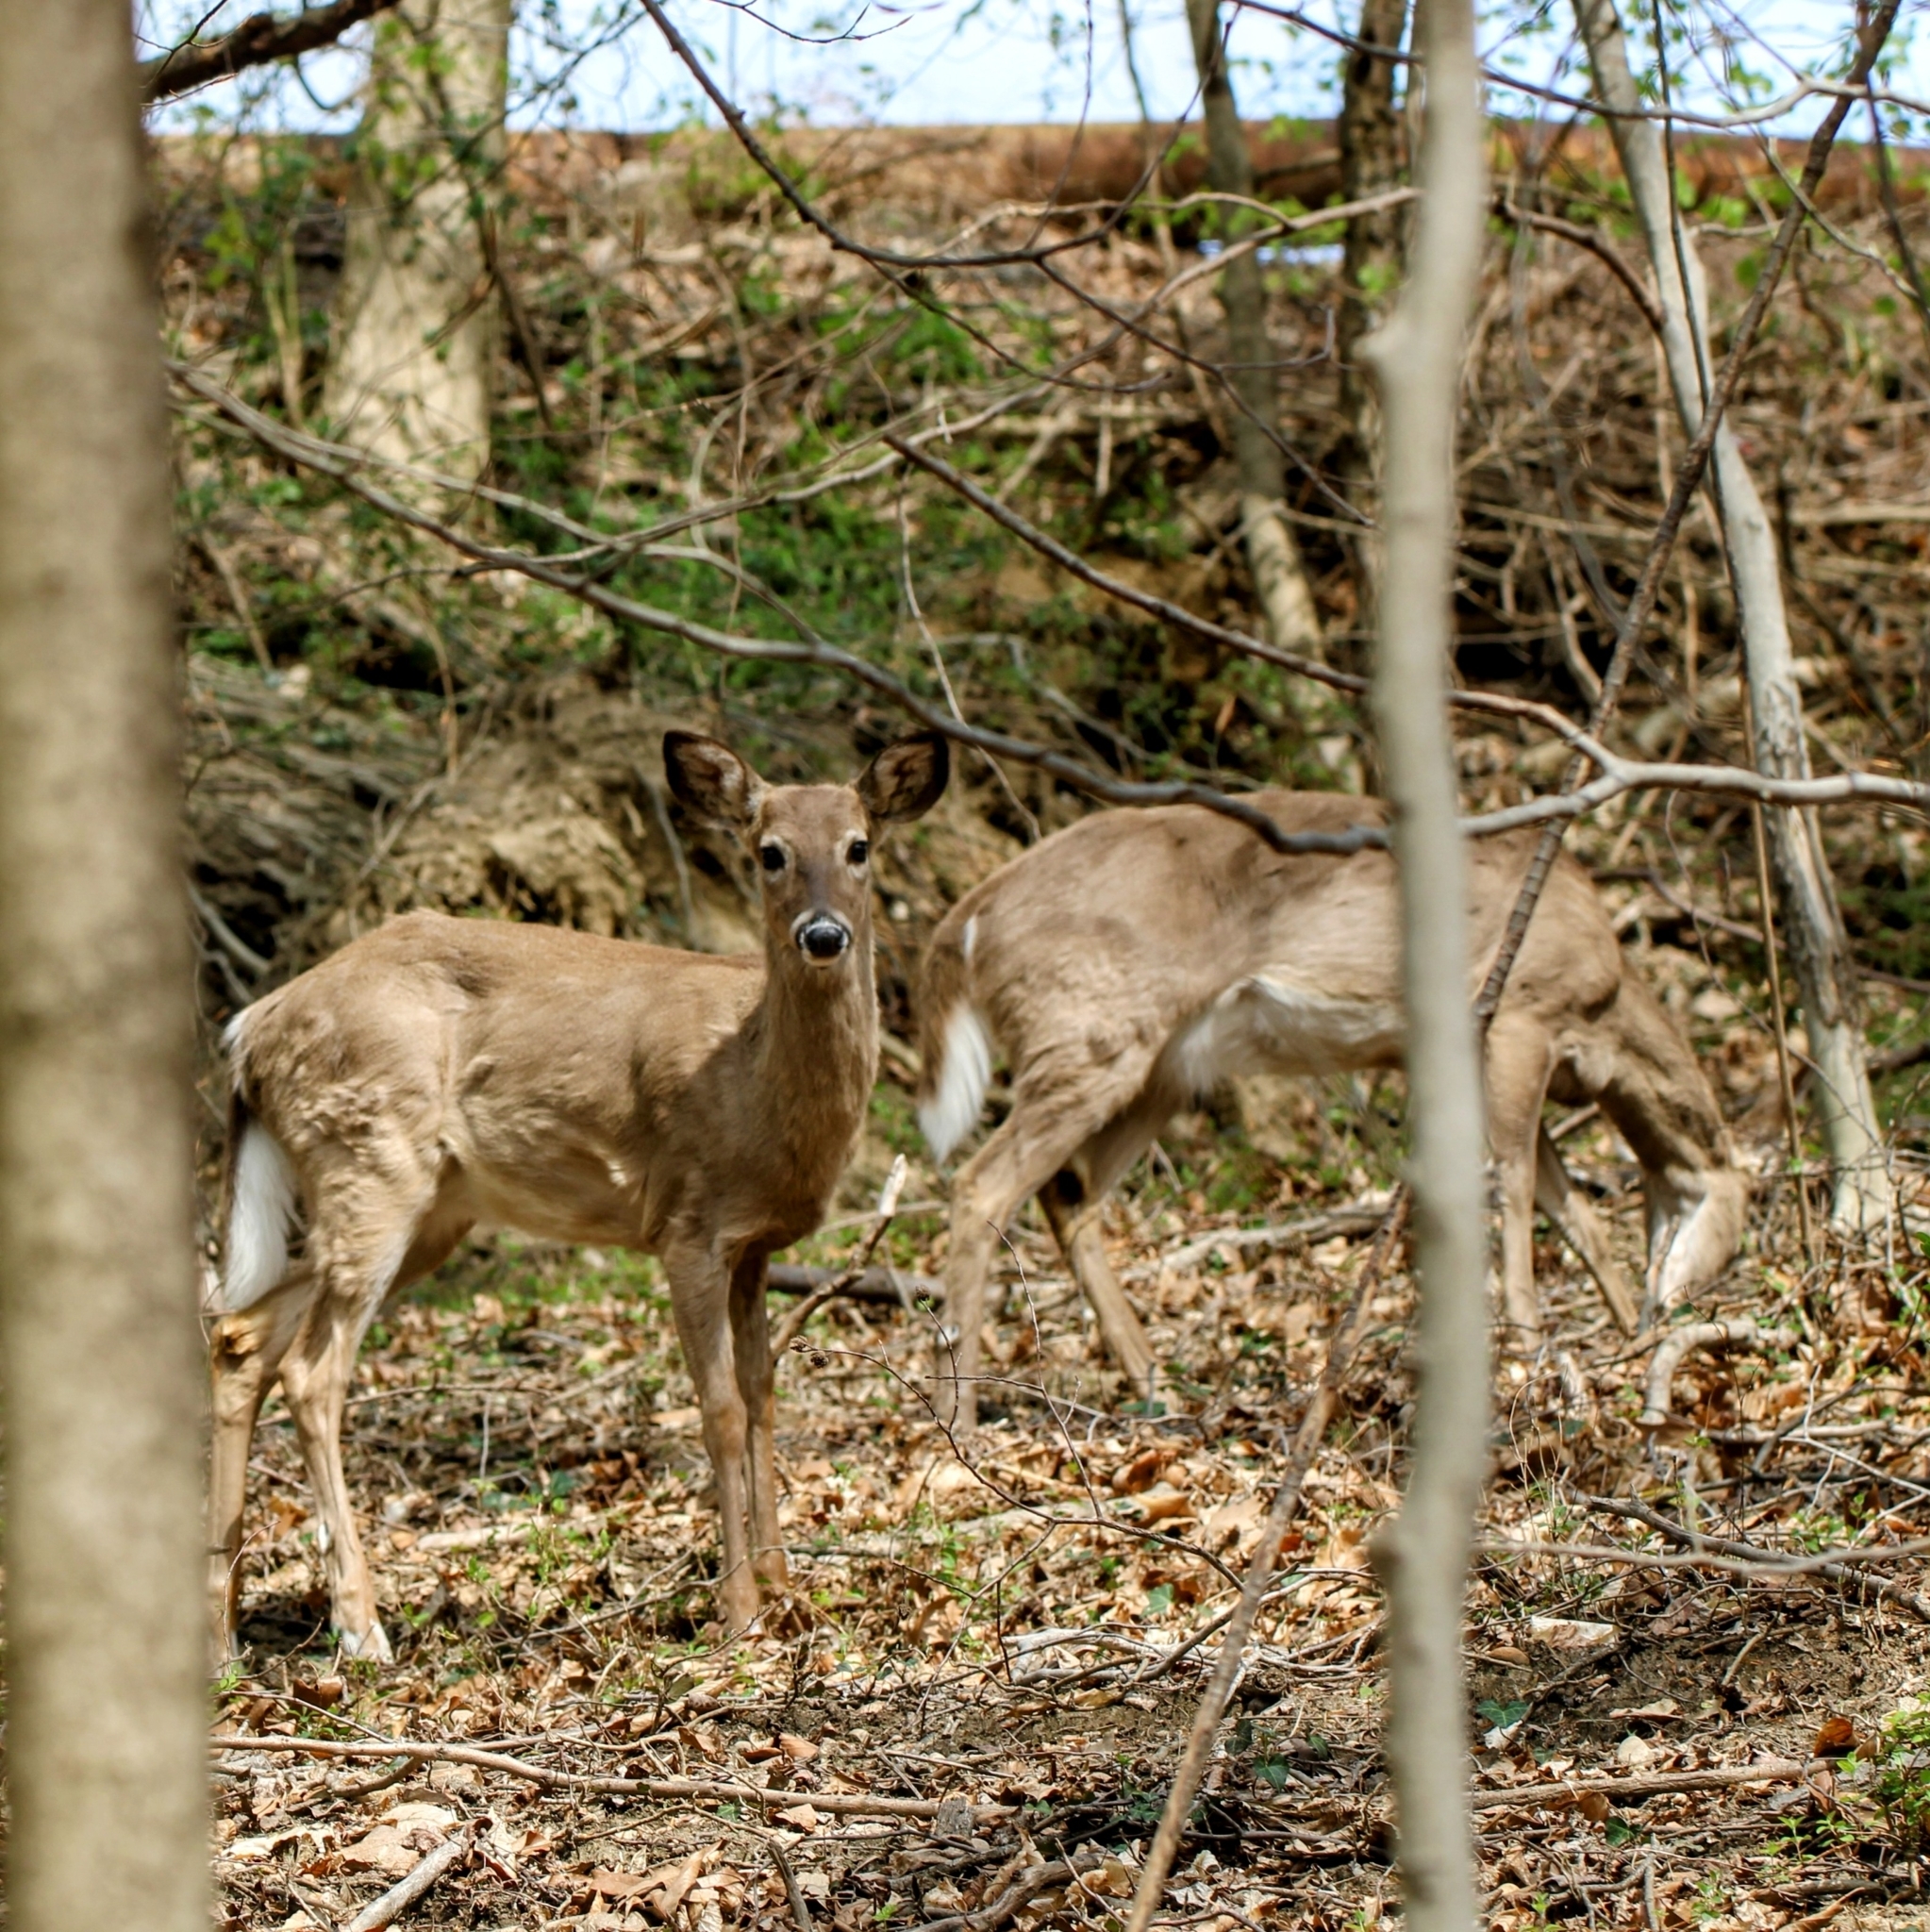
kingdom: Animalia
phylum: Chordata
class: Mammalia
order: Artiodactyla
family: Cervidae
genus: Odocoileus
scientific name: Odocoileus virginianus
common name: White-tailed deer
